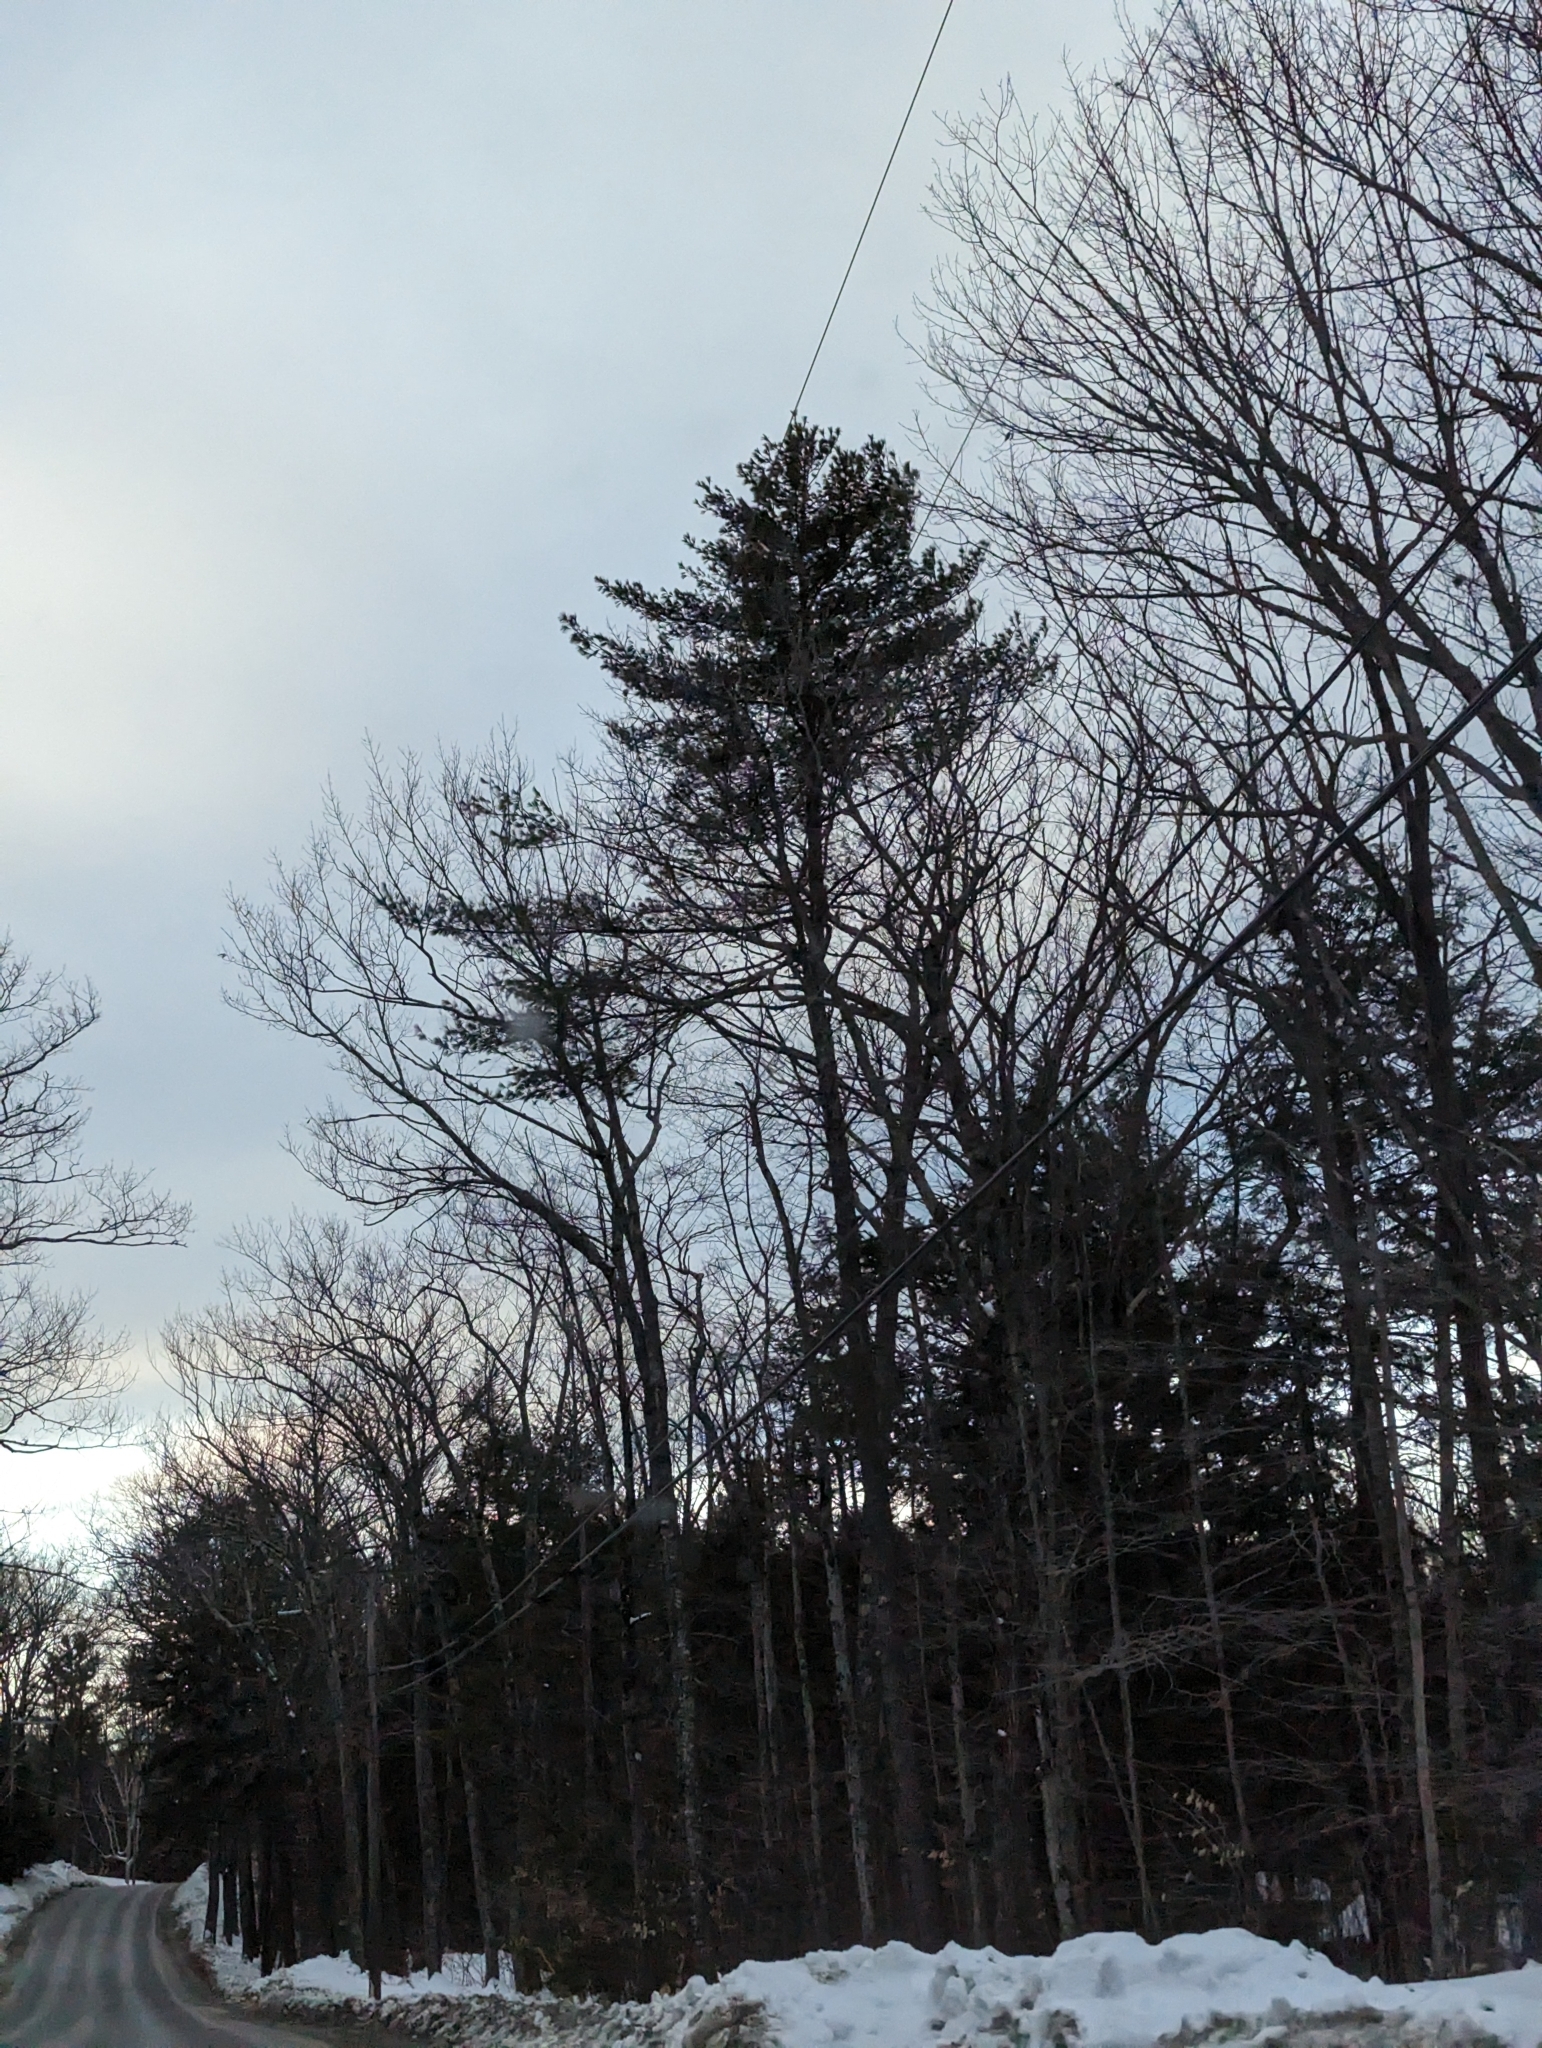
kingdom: Plantae
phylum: Tracheophyta
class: Pinopsida
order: Pinales
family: Pinaceae
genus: Pinus
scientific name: Pinus strobus
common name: Weymouth pine
